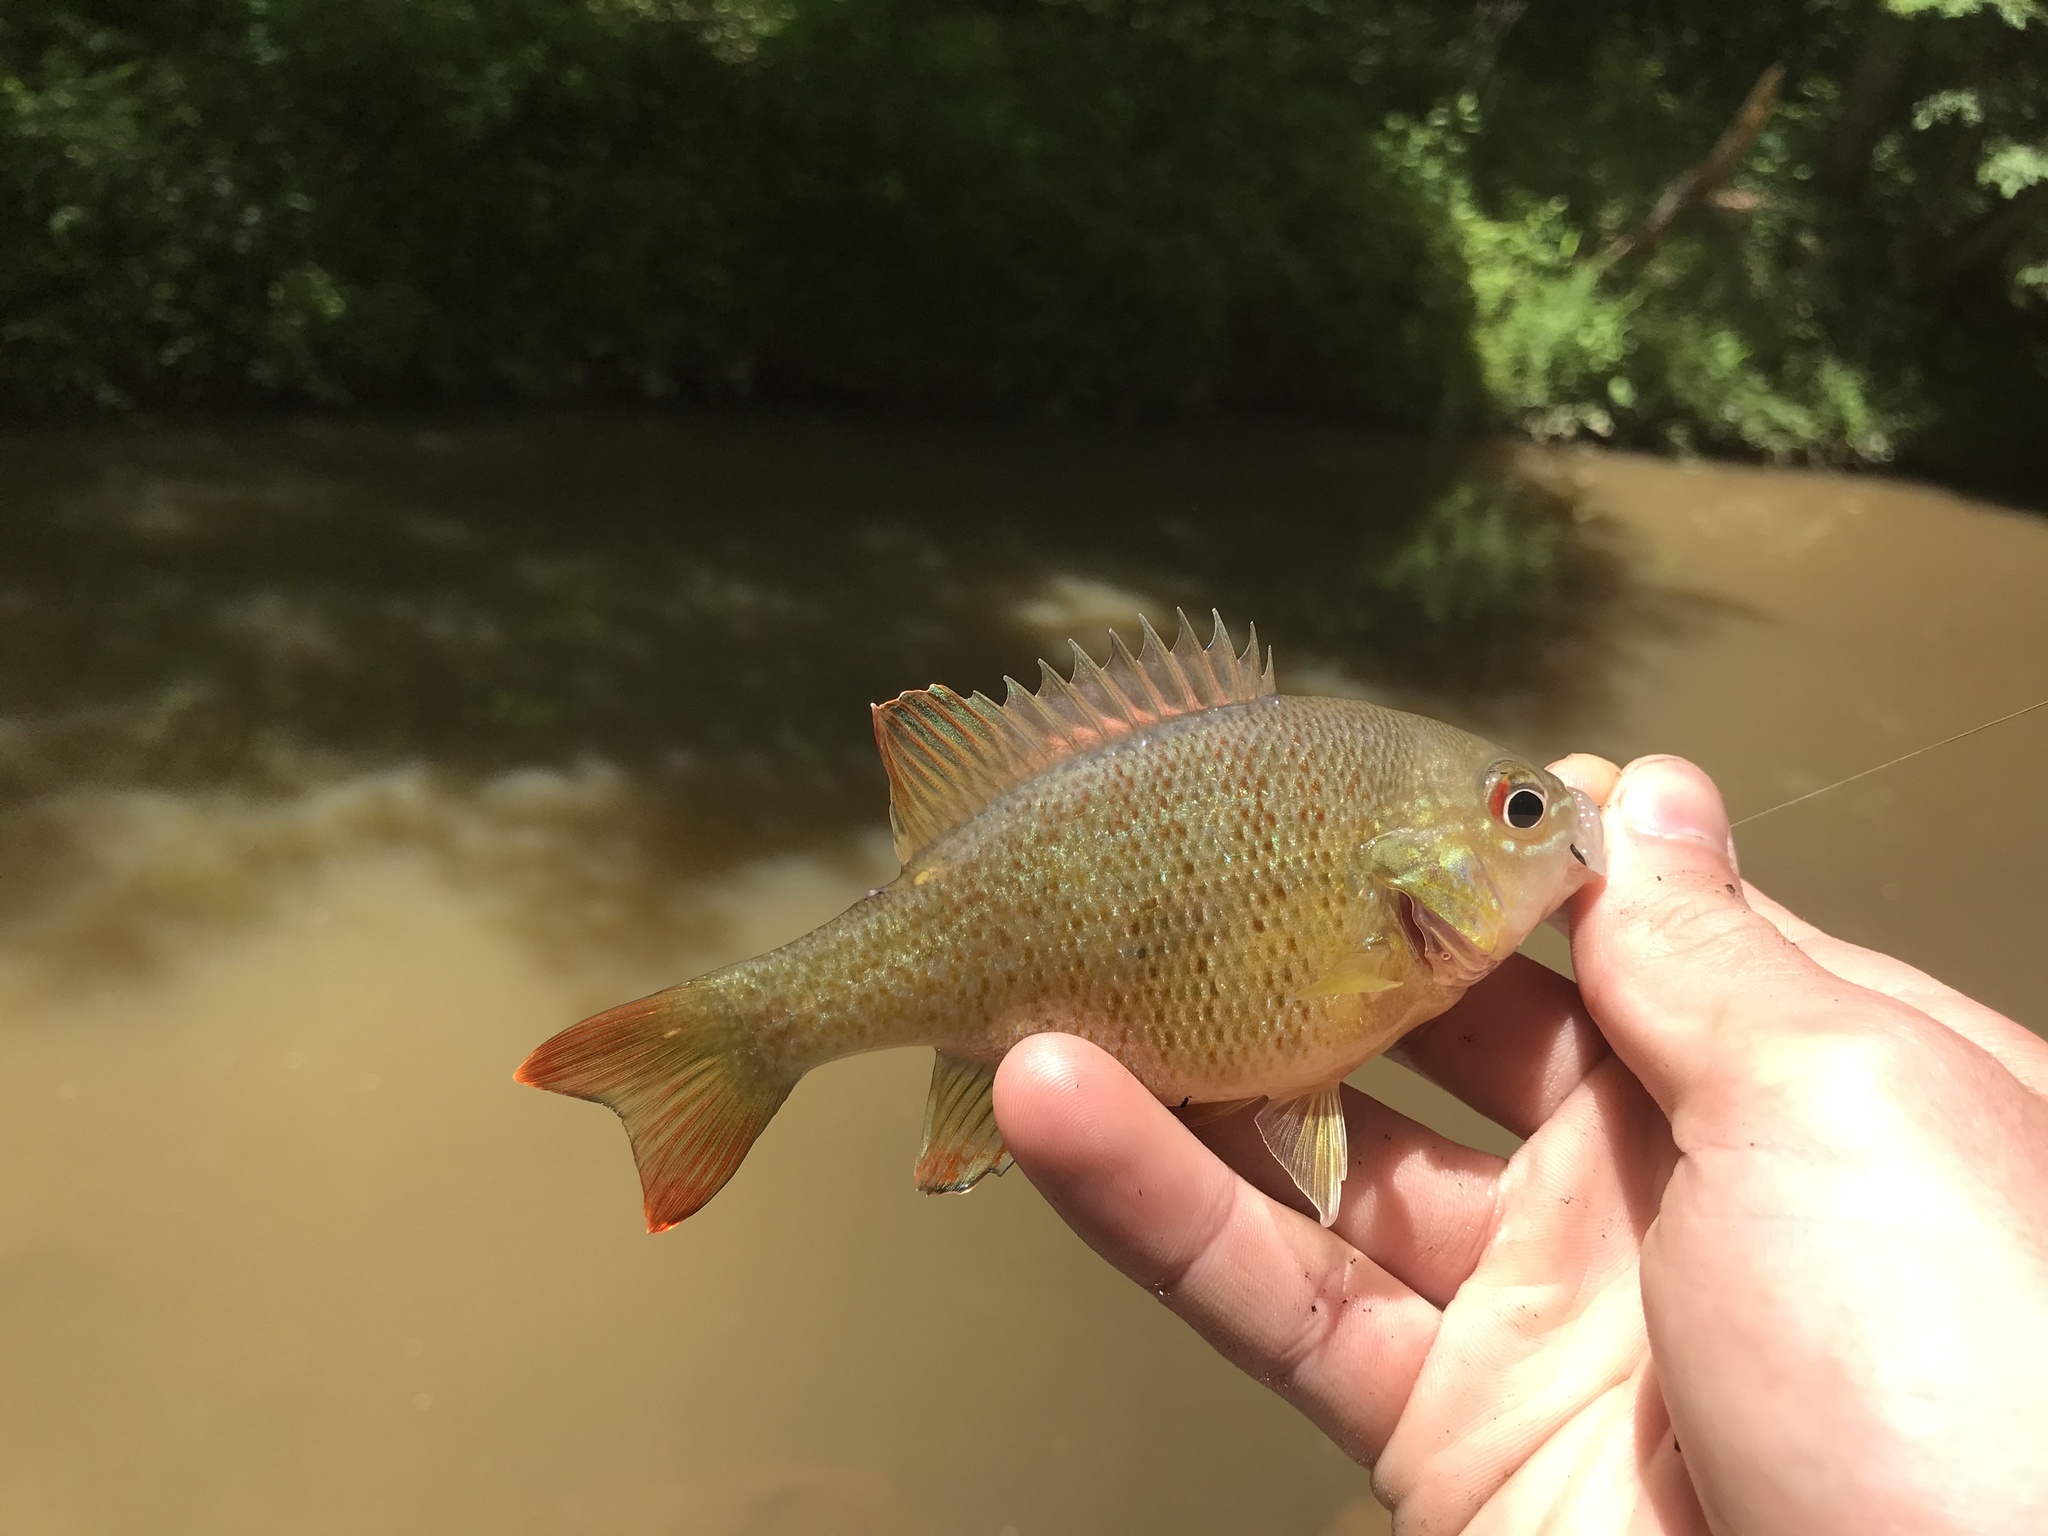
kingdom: Animalia
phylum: Chordata
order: Perciformes
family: Centrarchidae
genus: Lepomis
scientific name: Lepomis auritus
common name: Redbreast sunfish
